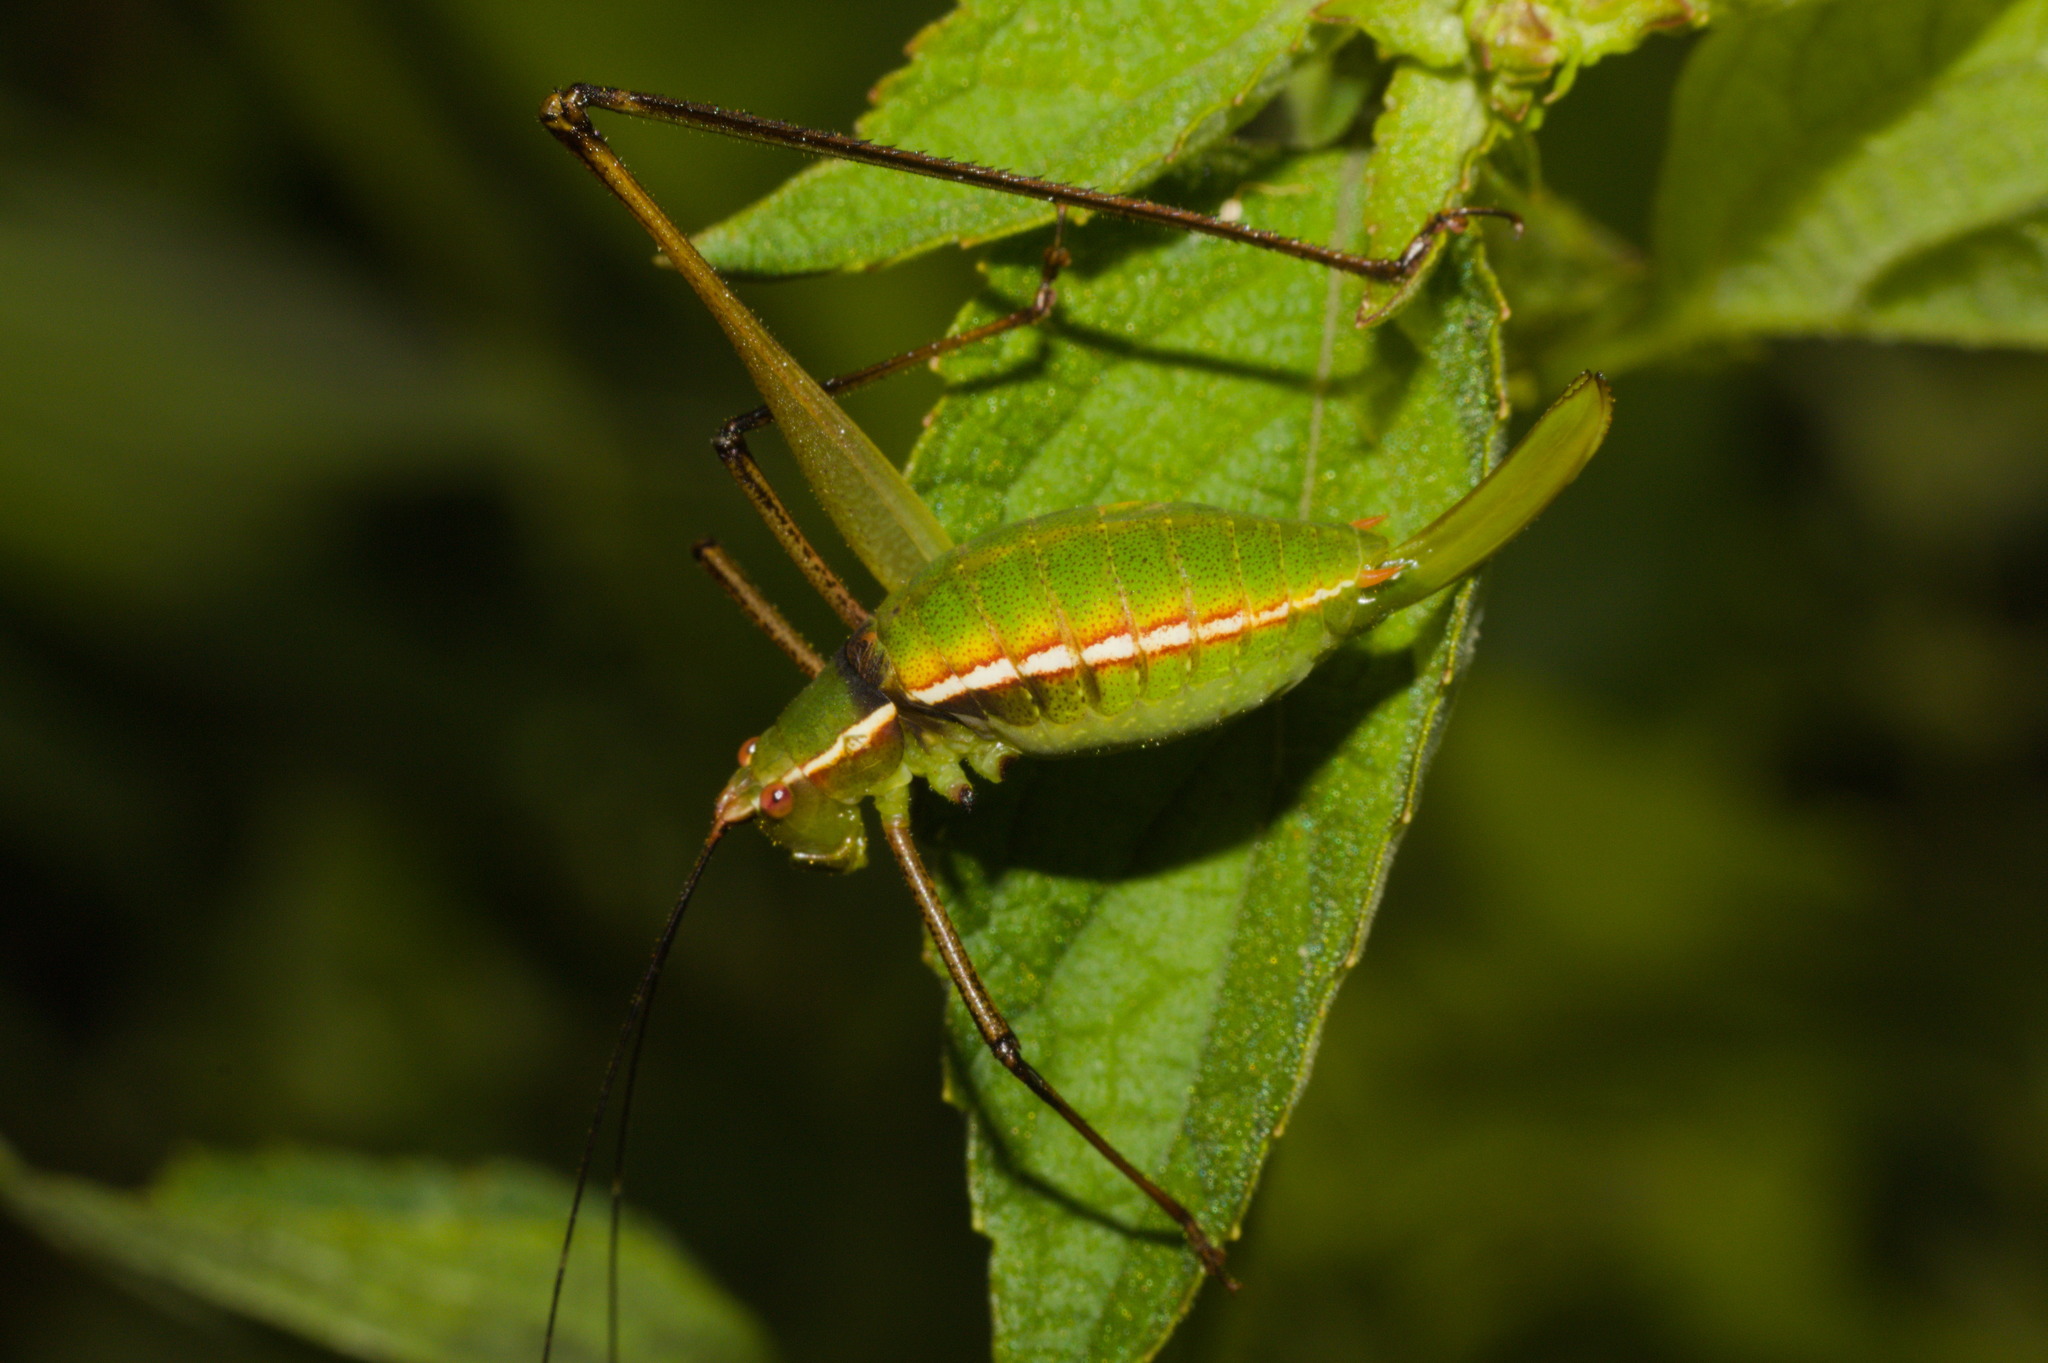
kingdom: Animalia
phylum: Arthropoda
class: Insecta
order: Orthoptera
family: Tettigoniidae
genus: Xenicola
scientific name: Xenicola xukrixi
